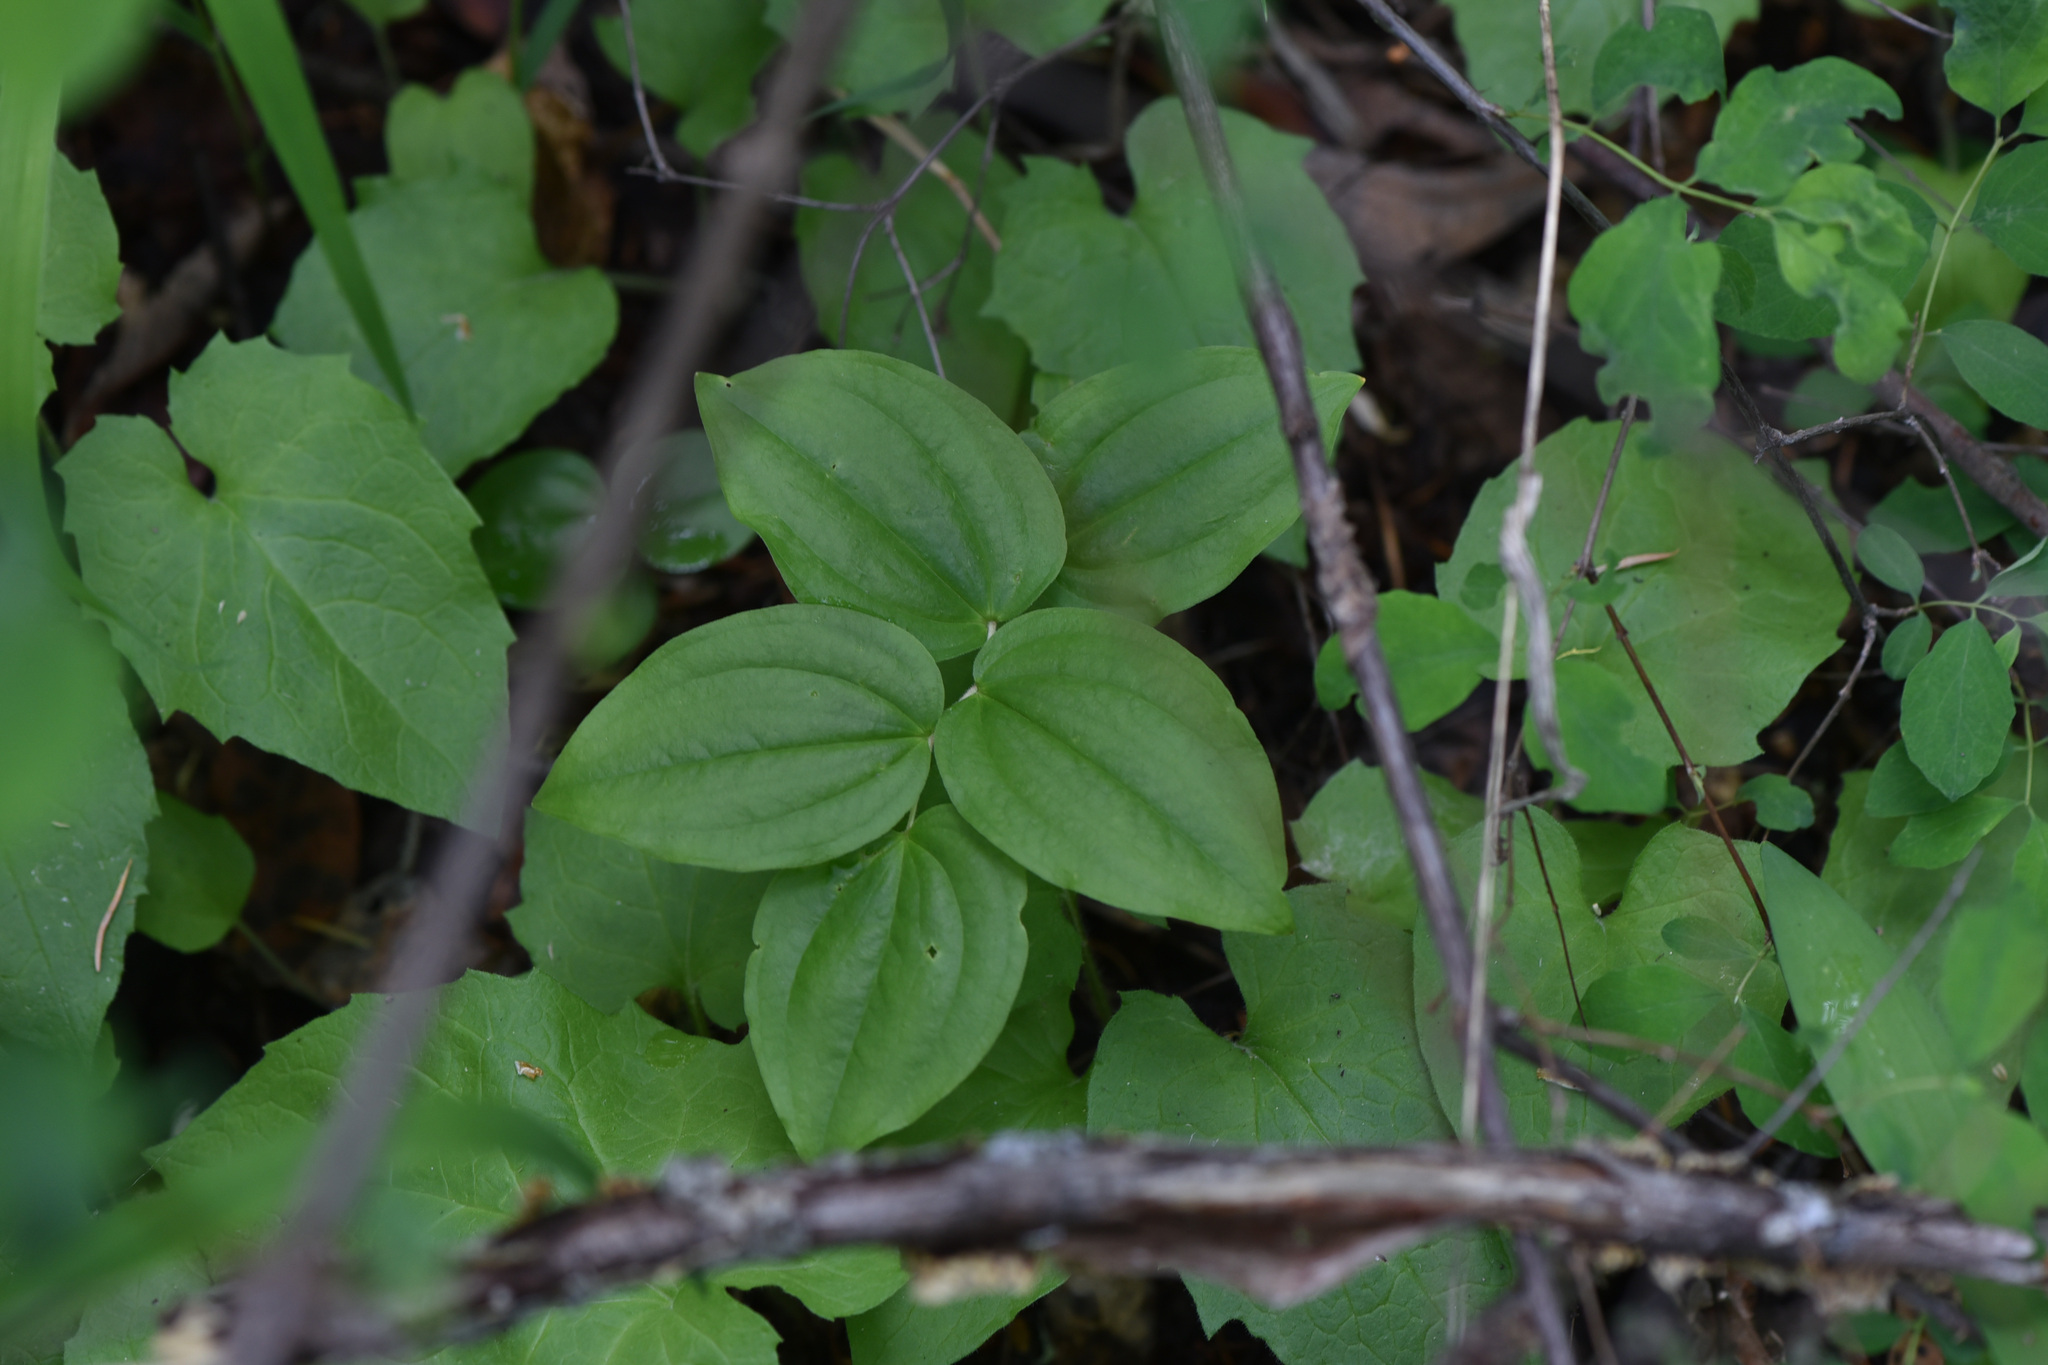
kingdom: Plantae
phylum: Tracheophyta
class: Liliopsida
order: Liliales
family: Liliaceae
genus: Prosartes
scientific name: Prosartes trachycarpa
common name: Rough-fruit fairy-bells
